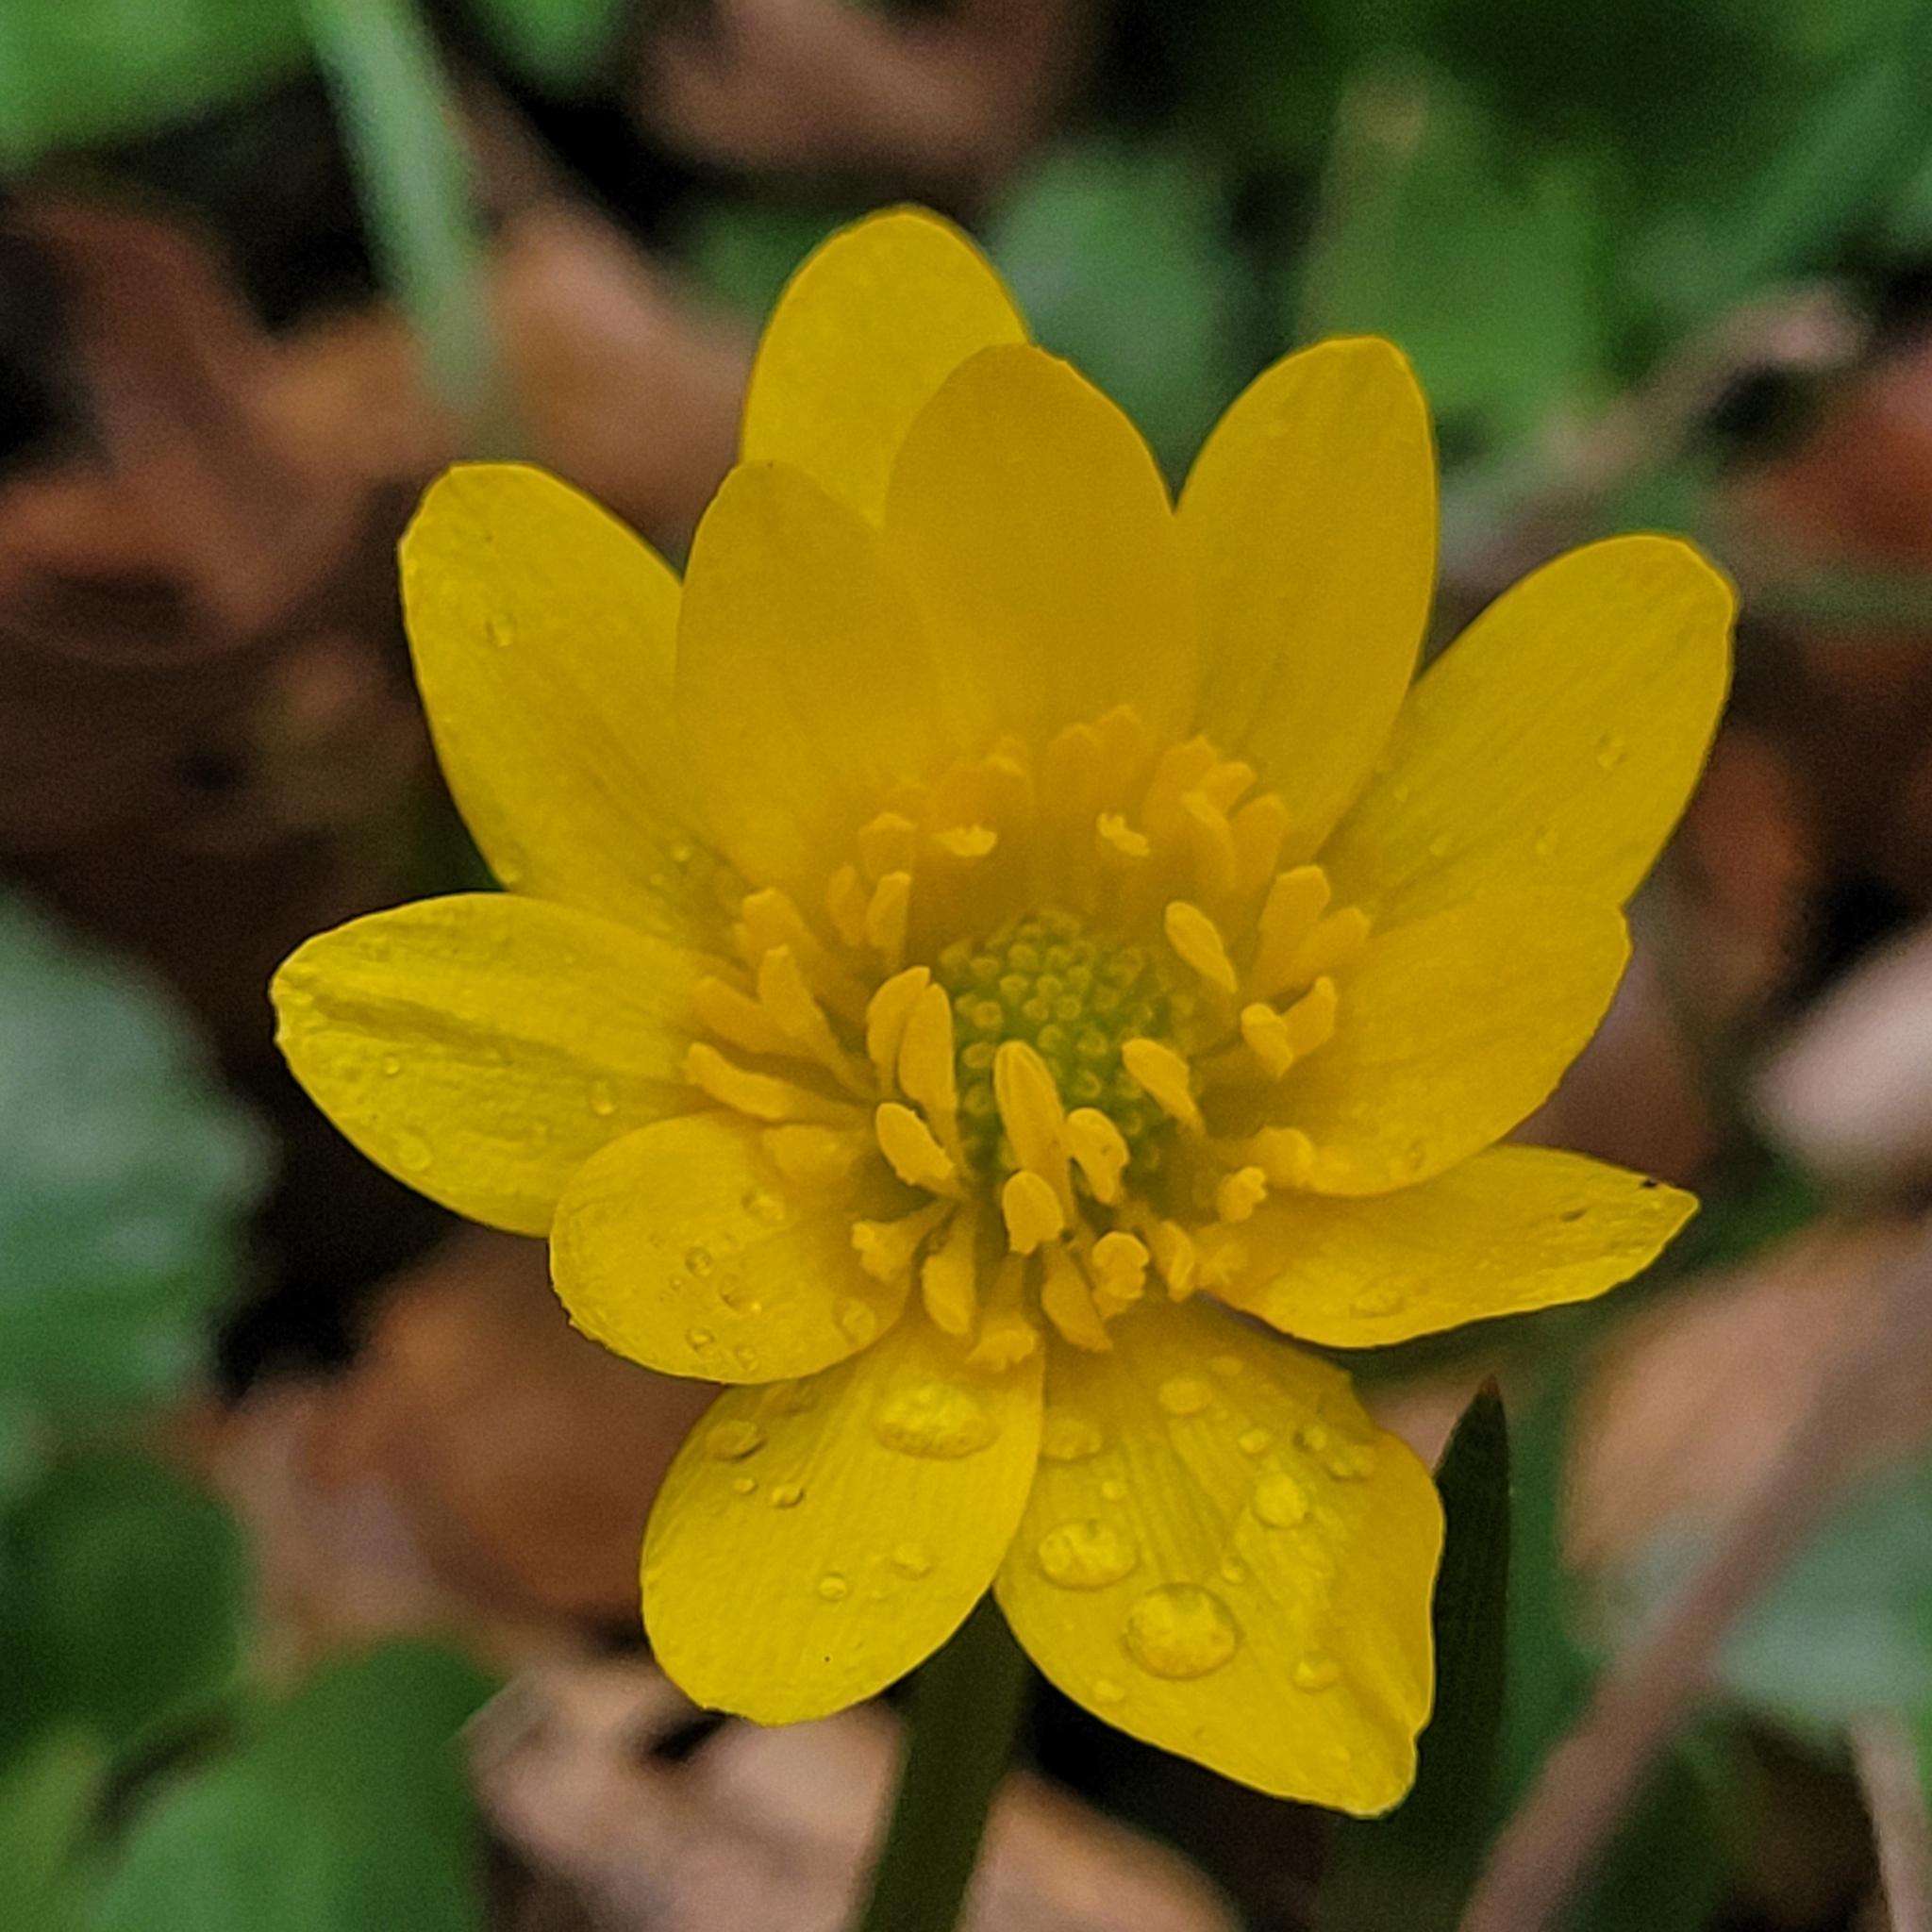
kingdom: Plantae
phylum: Tracheophyta
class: Magnoliopsida
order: Ranunculales
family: Ranunculaceae
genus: Ficaria
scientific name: Ficaria verna
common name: Lesser celandine
